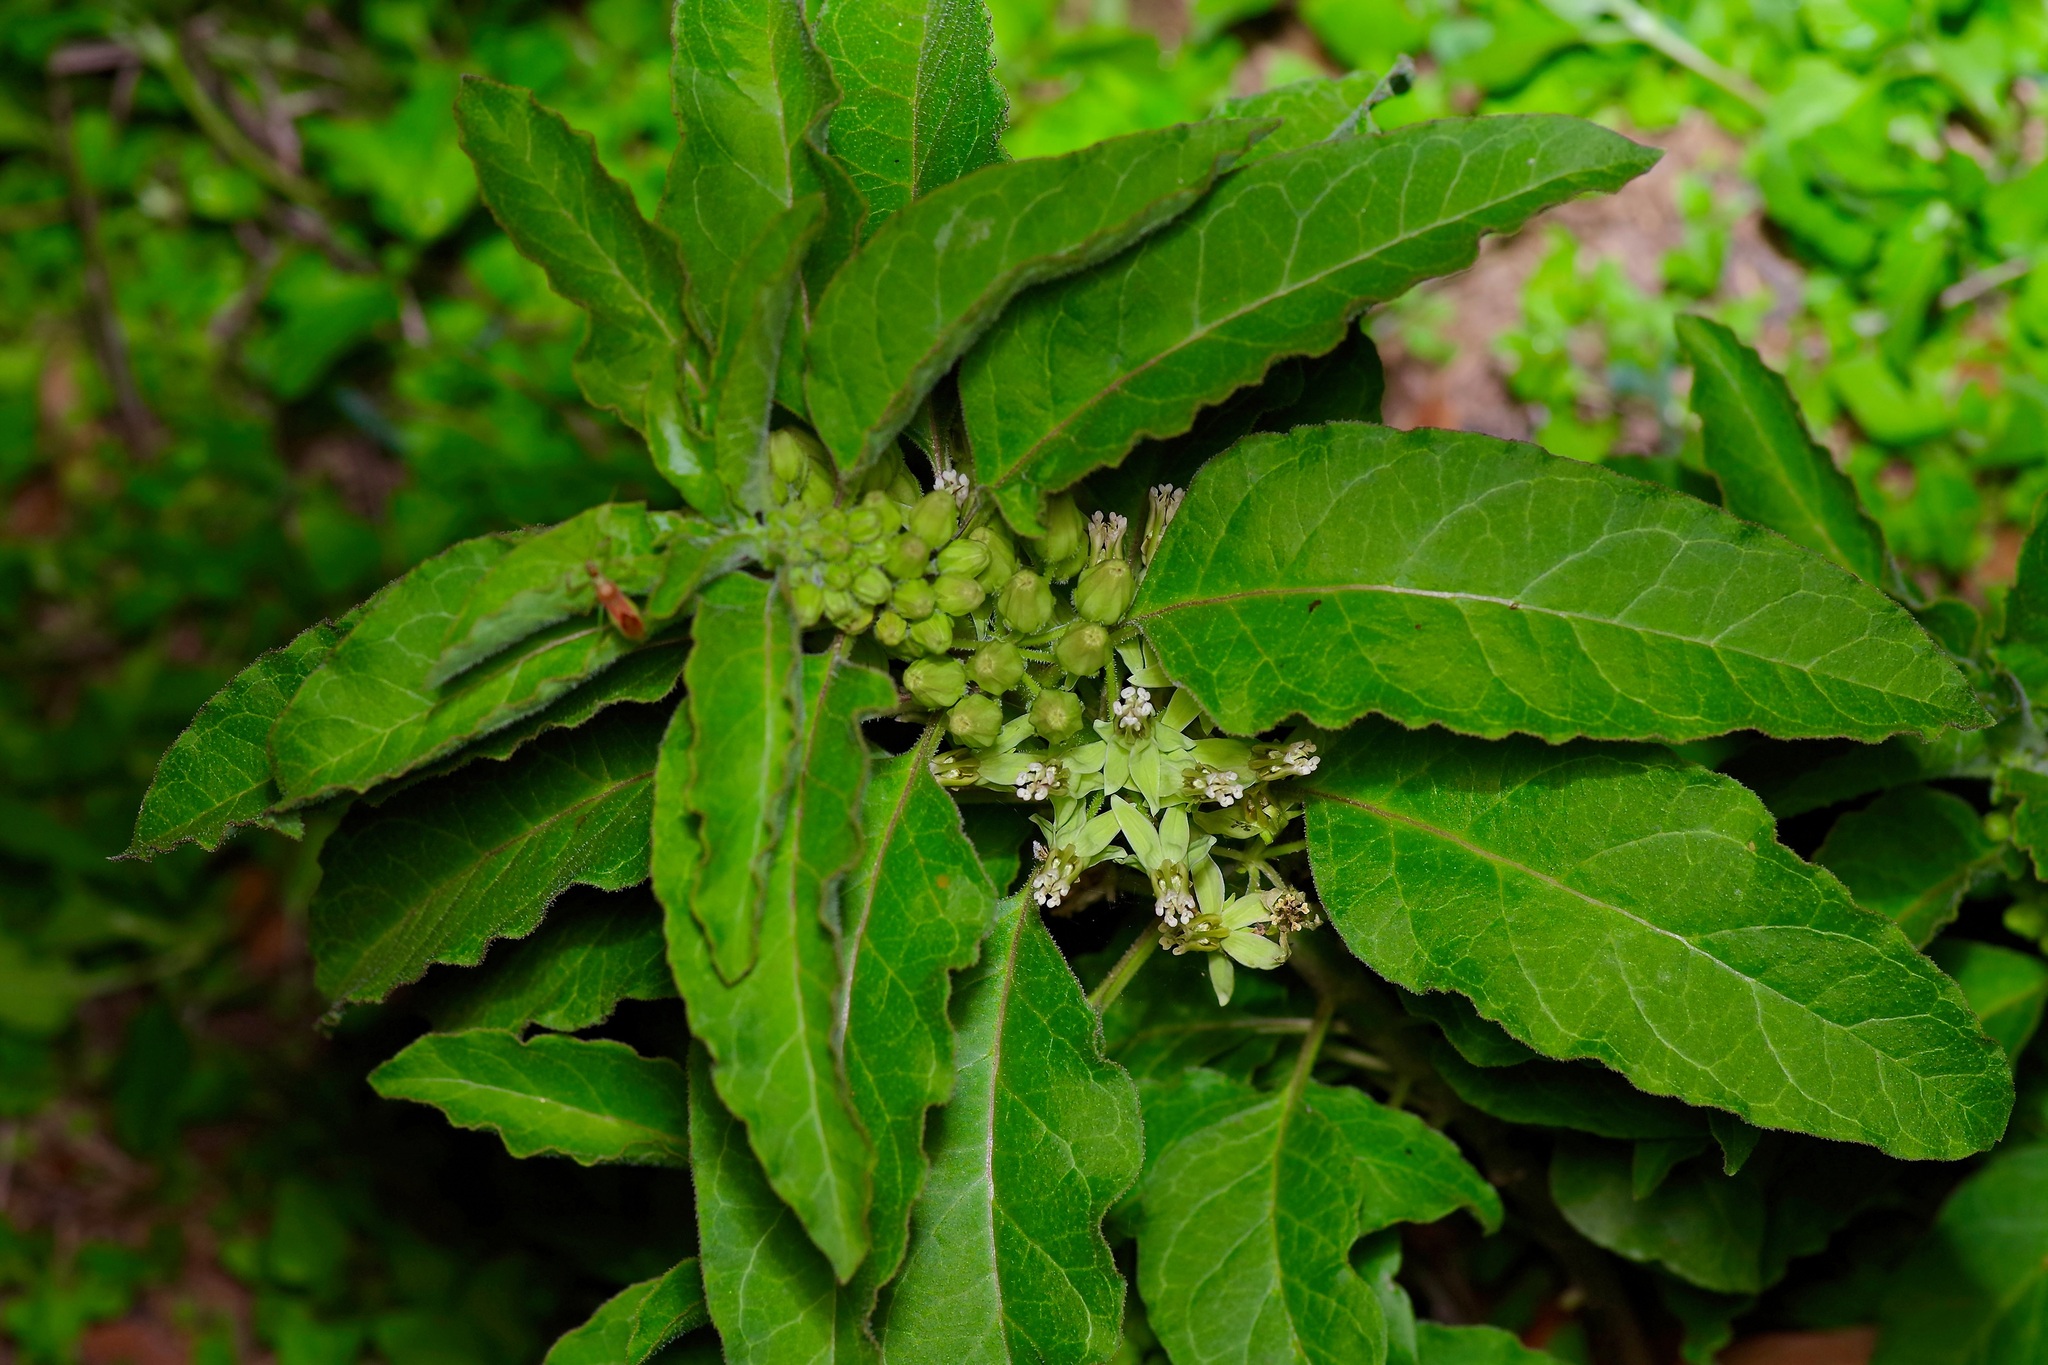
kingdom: Plantae
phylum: Tracheophyta
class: Magnoliopsida
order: Gentianales
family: Apocynaceae
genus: Asclepias
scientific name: Asclepias oenotheroides
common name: Zizotes milkweed
